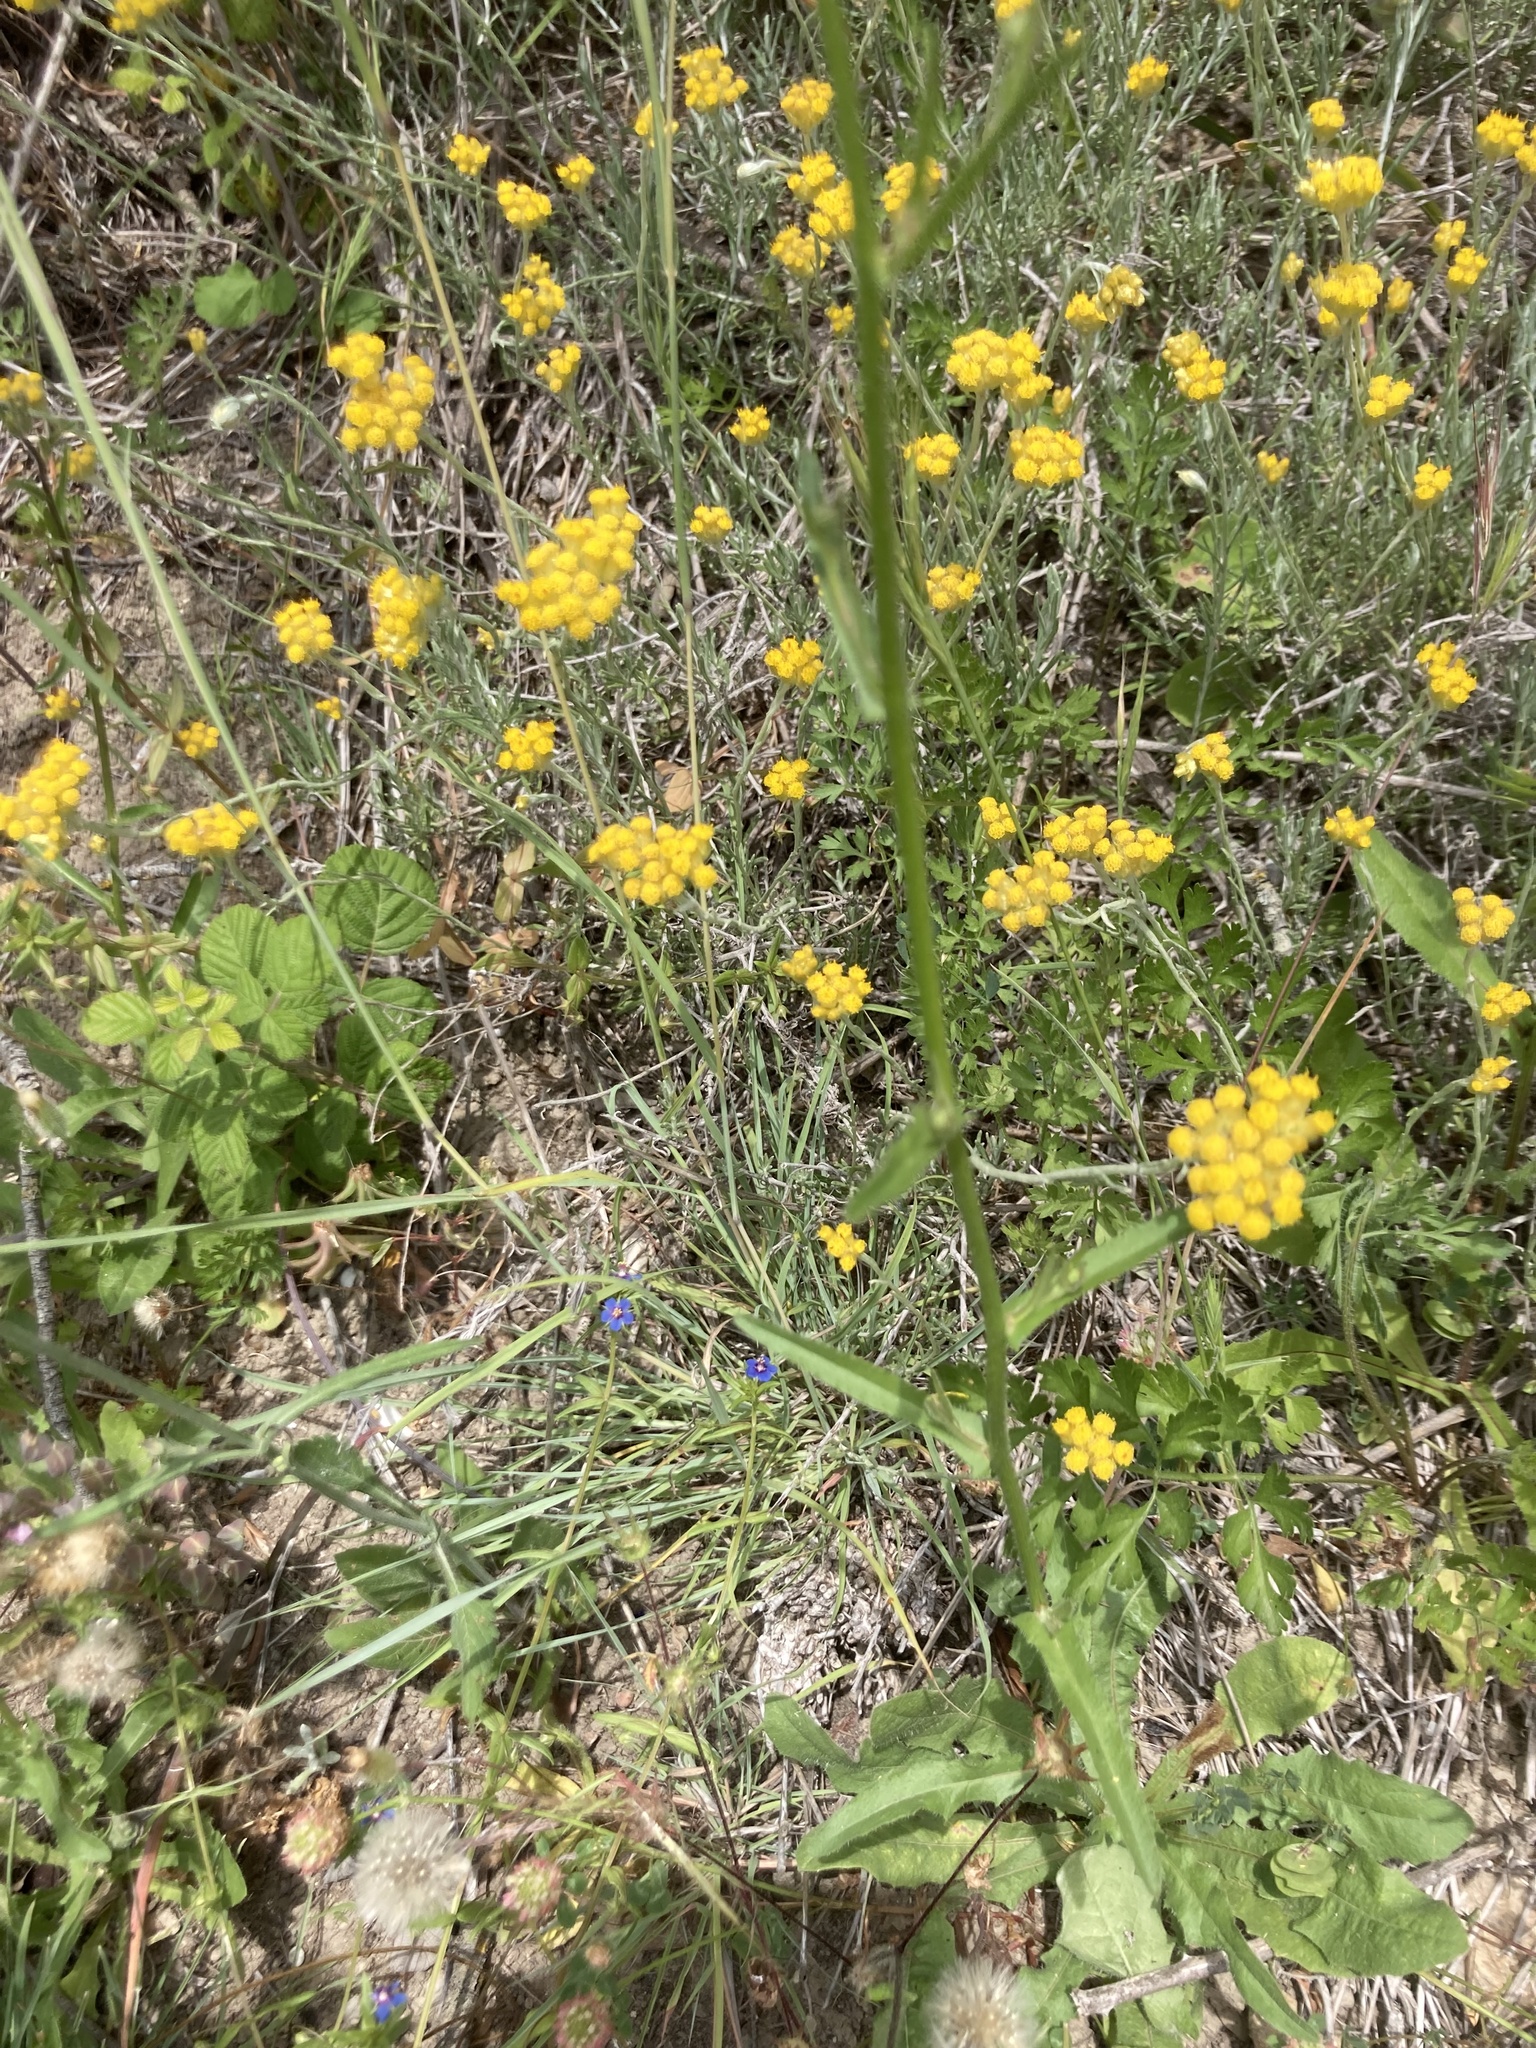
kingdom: Plantae
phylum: Tracheophyta
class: Magnoliopsida
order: Asterales
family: Asteraceae
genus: Helichrysum
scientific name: Helichrysum stoechas
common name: Goldilocks
